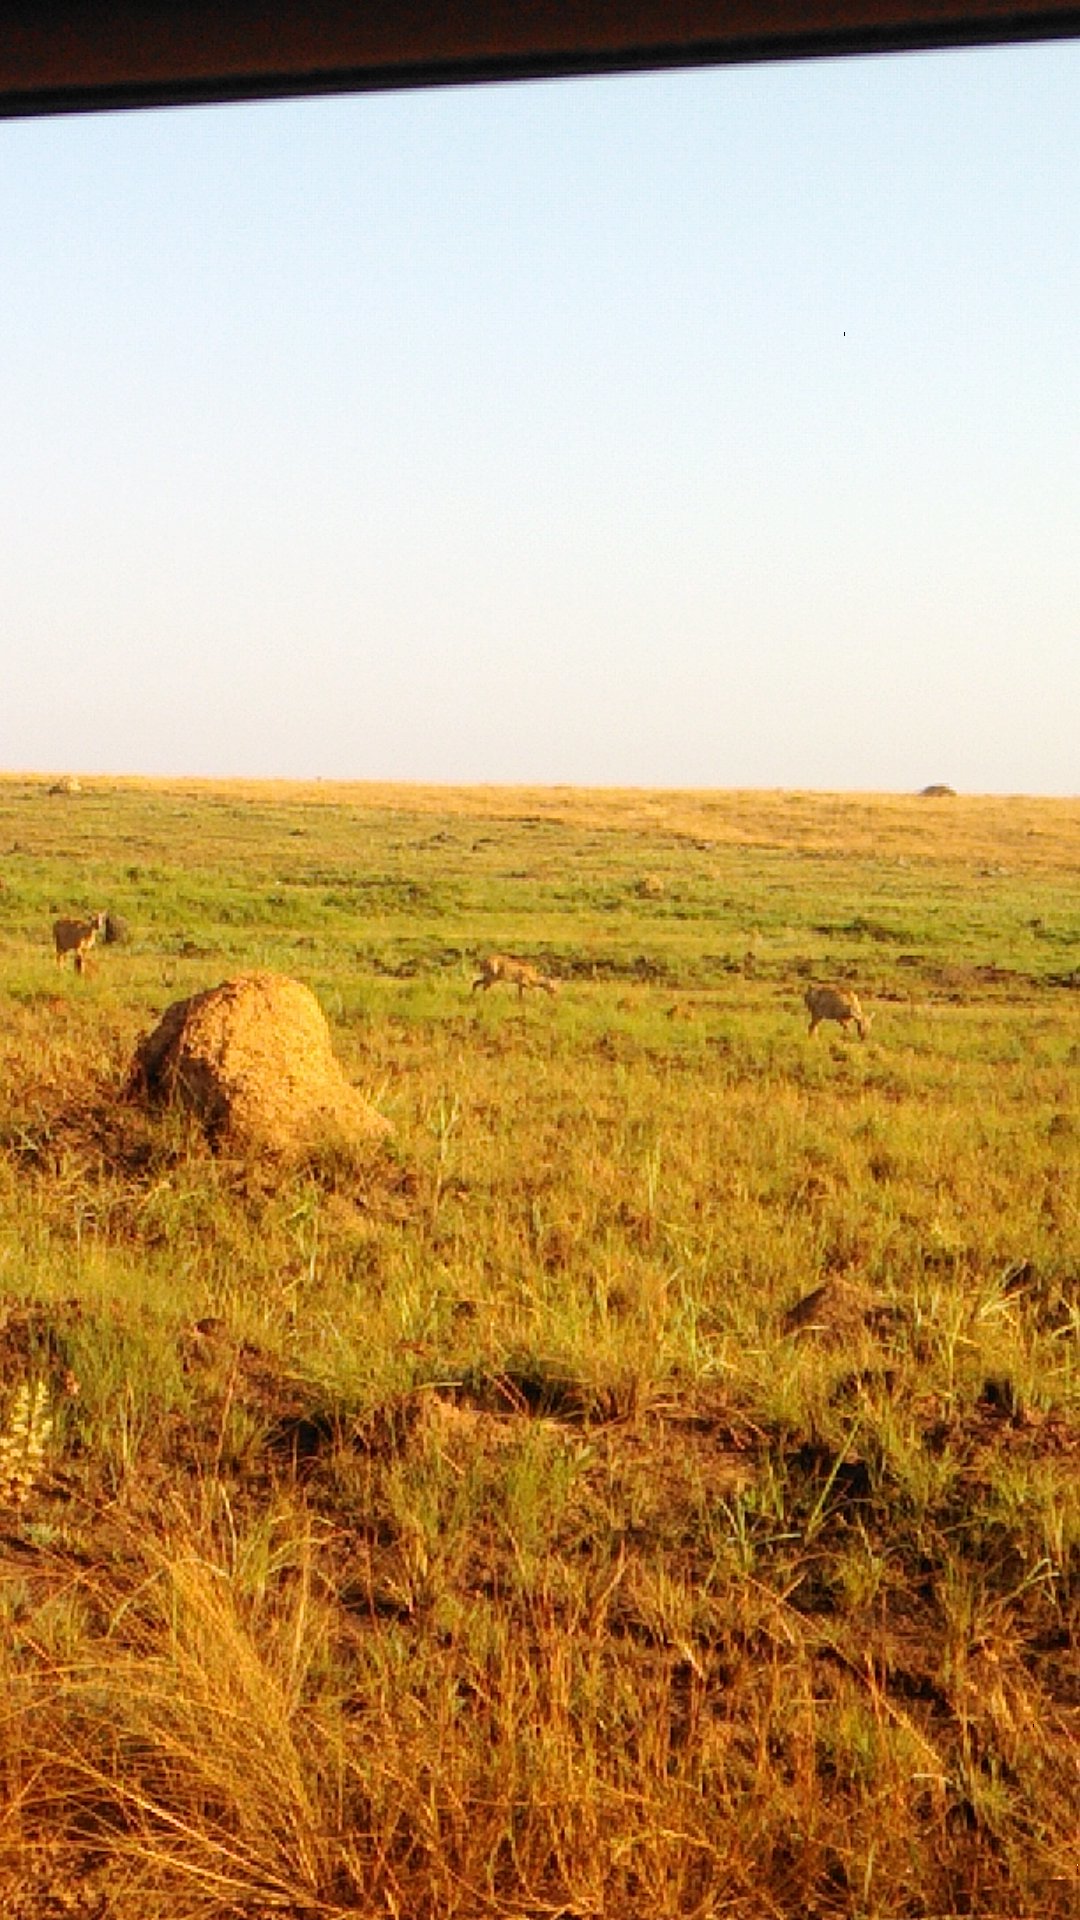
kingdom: Animalia
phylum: Chordata
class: Mammalia
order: Artiodactyla
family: Cervidae
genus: Ozotoceros
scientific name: Ozotoceros bezoarticus
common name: Pampas deer
